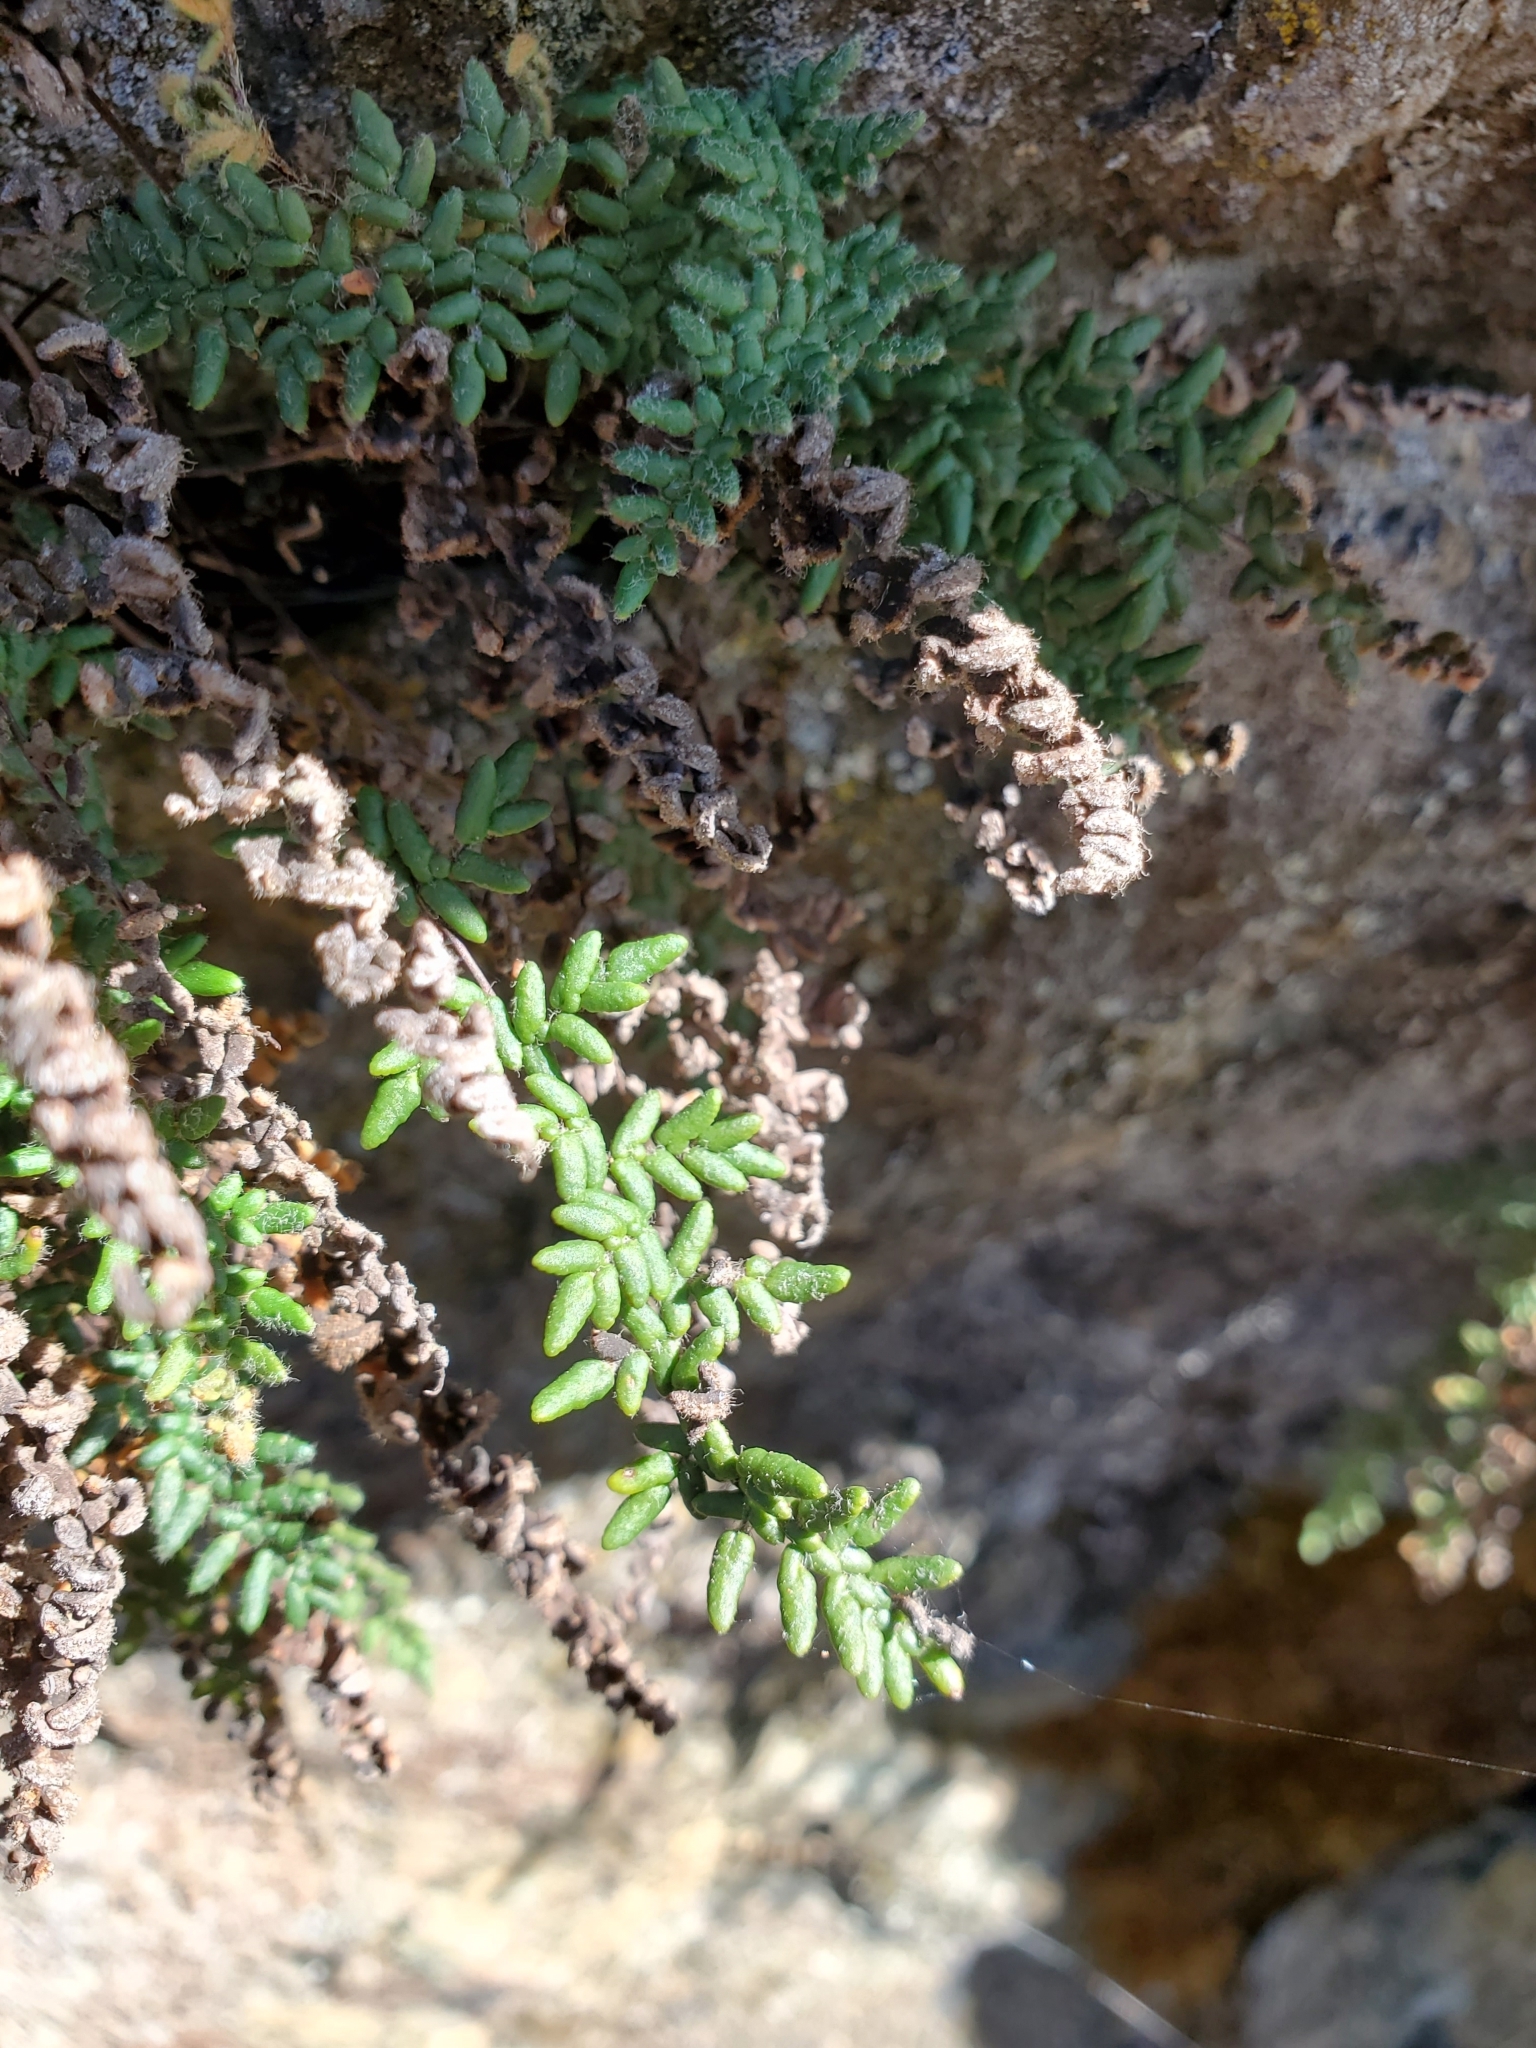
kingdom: Plantae
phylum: Tracheophyta
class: Polypodiopsida
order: Polypodiales
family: Pteridaceae
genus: Myriopteris
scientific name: Myriopteris gracillima
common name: Lace fern
